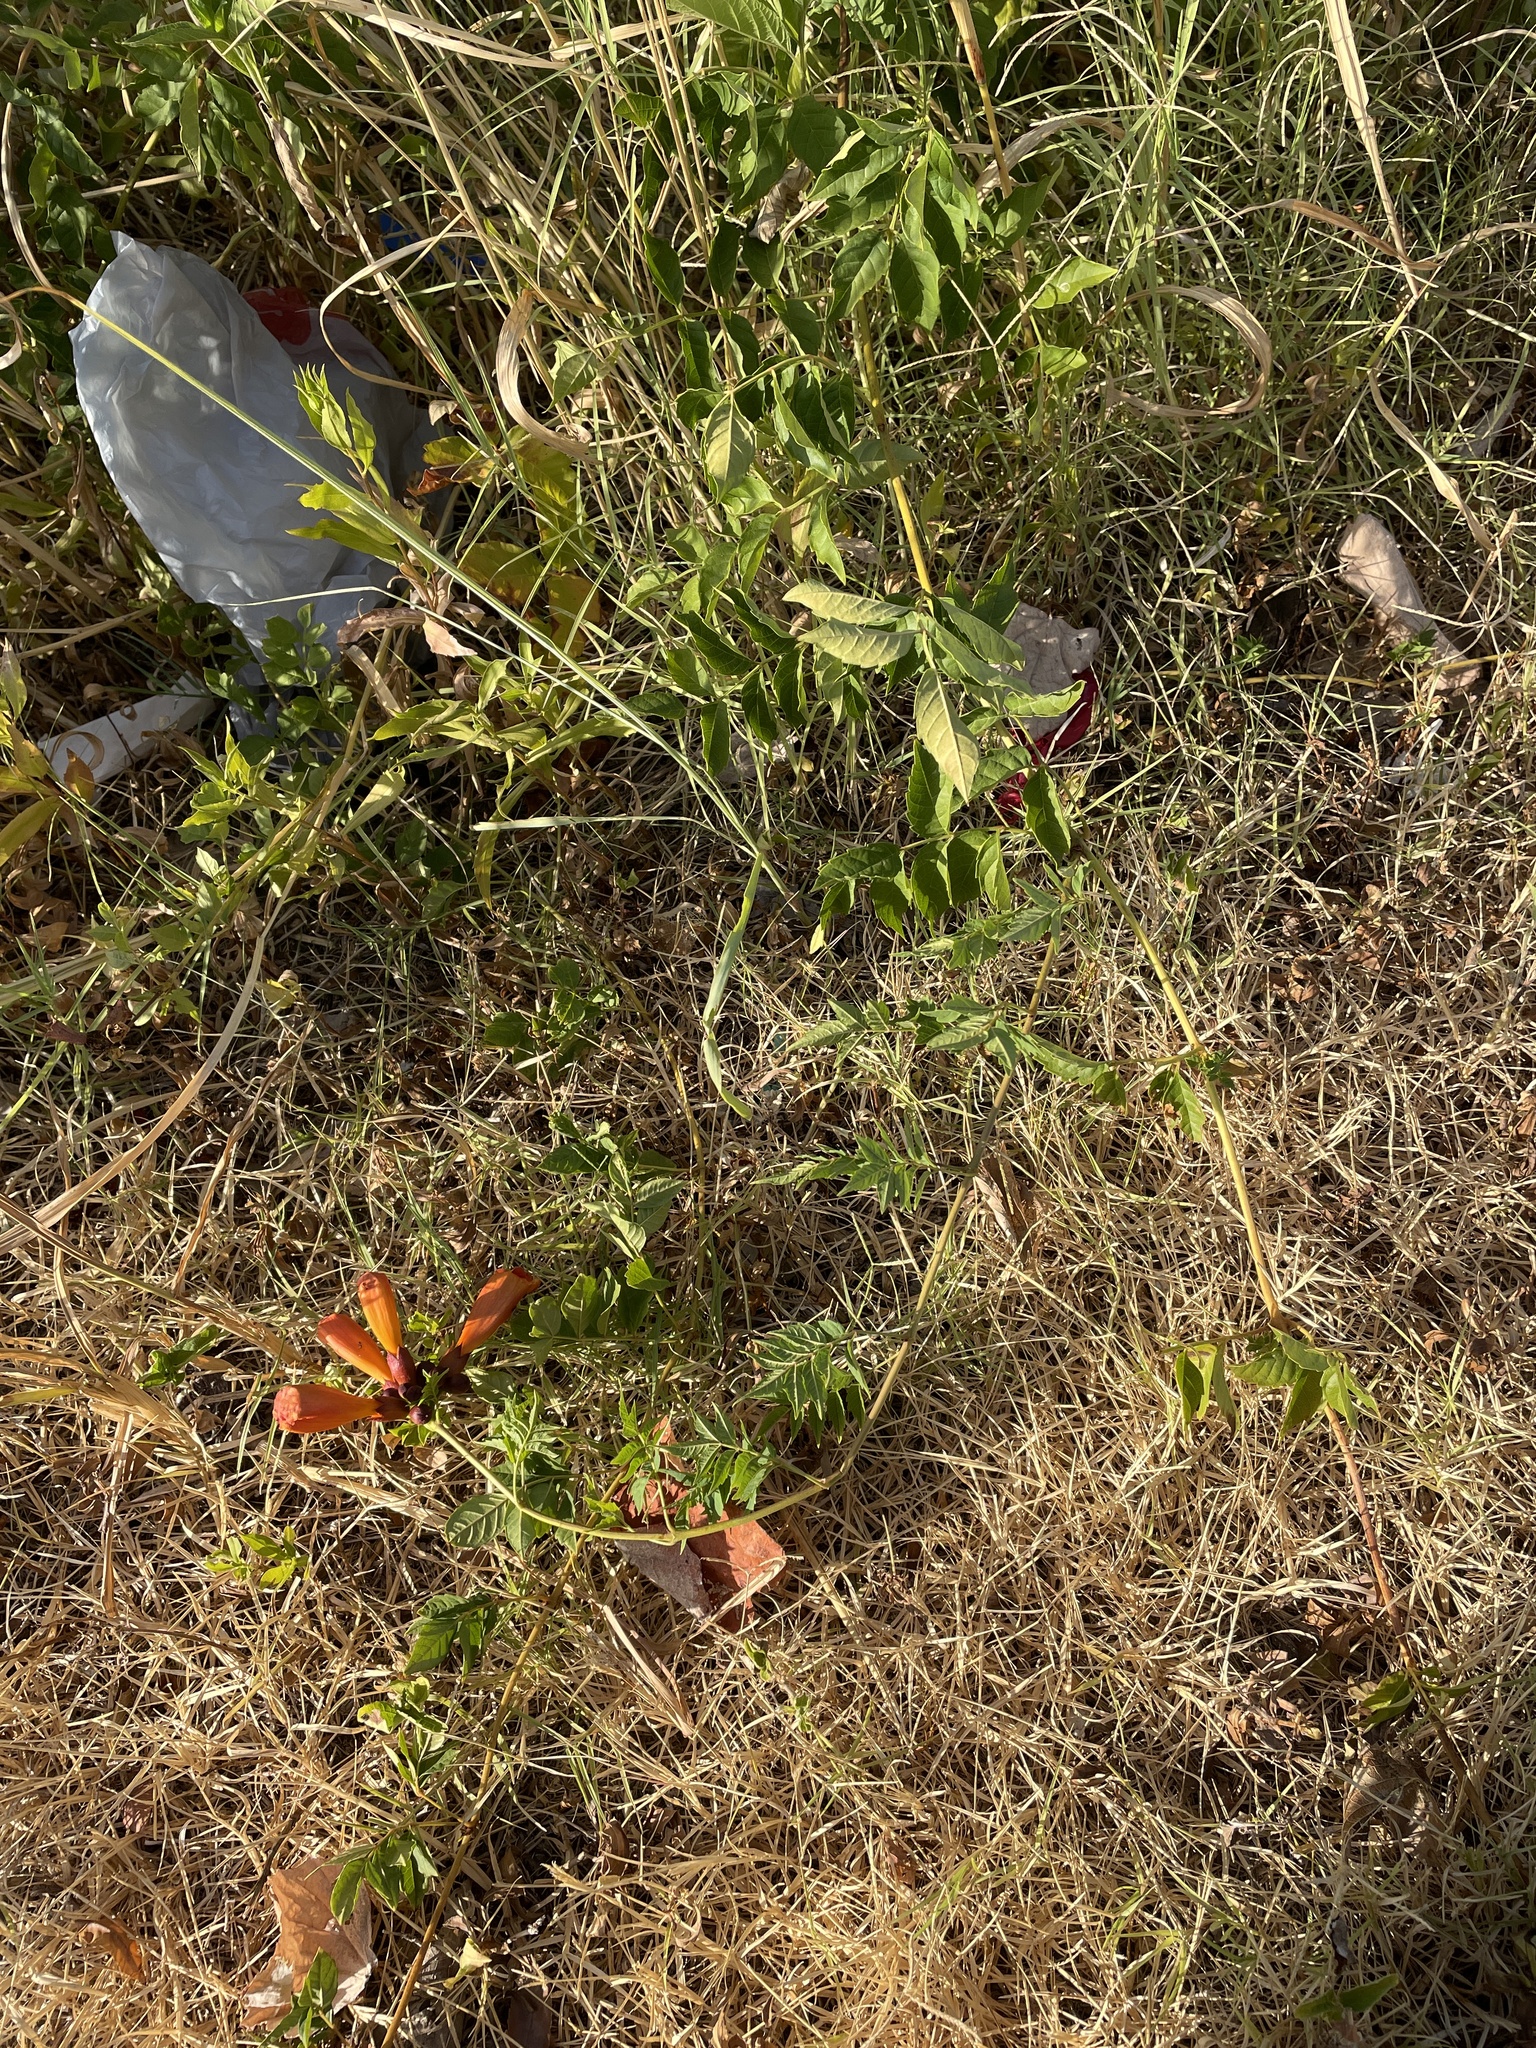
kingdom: Plantae
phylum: Tracheophyta
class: Magnoliopsida
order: Lamiales
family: Bignoniaceae
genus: Campsis
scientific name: Campsis radicans
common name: Trumpet-creeper
